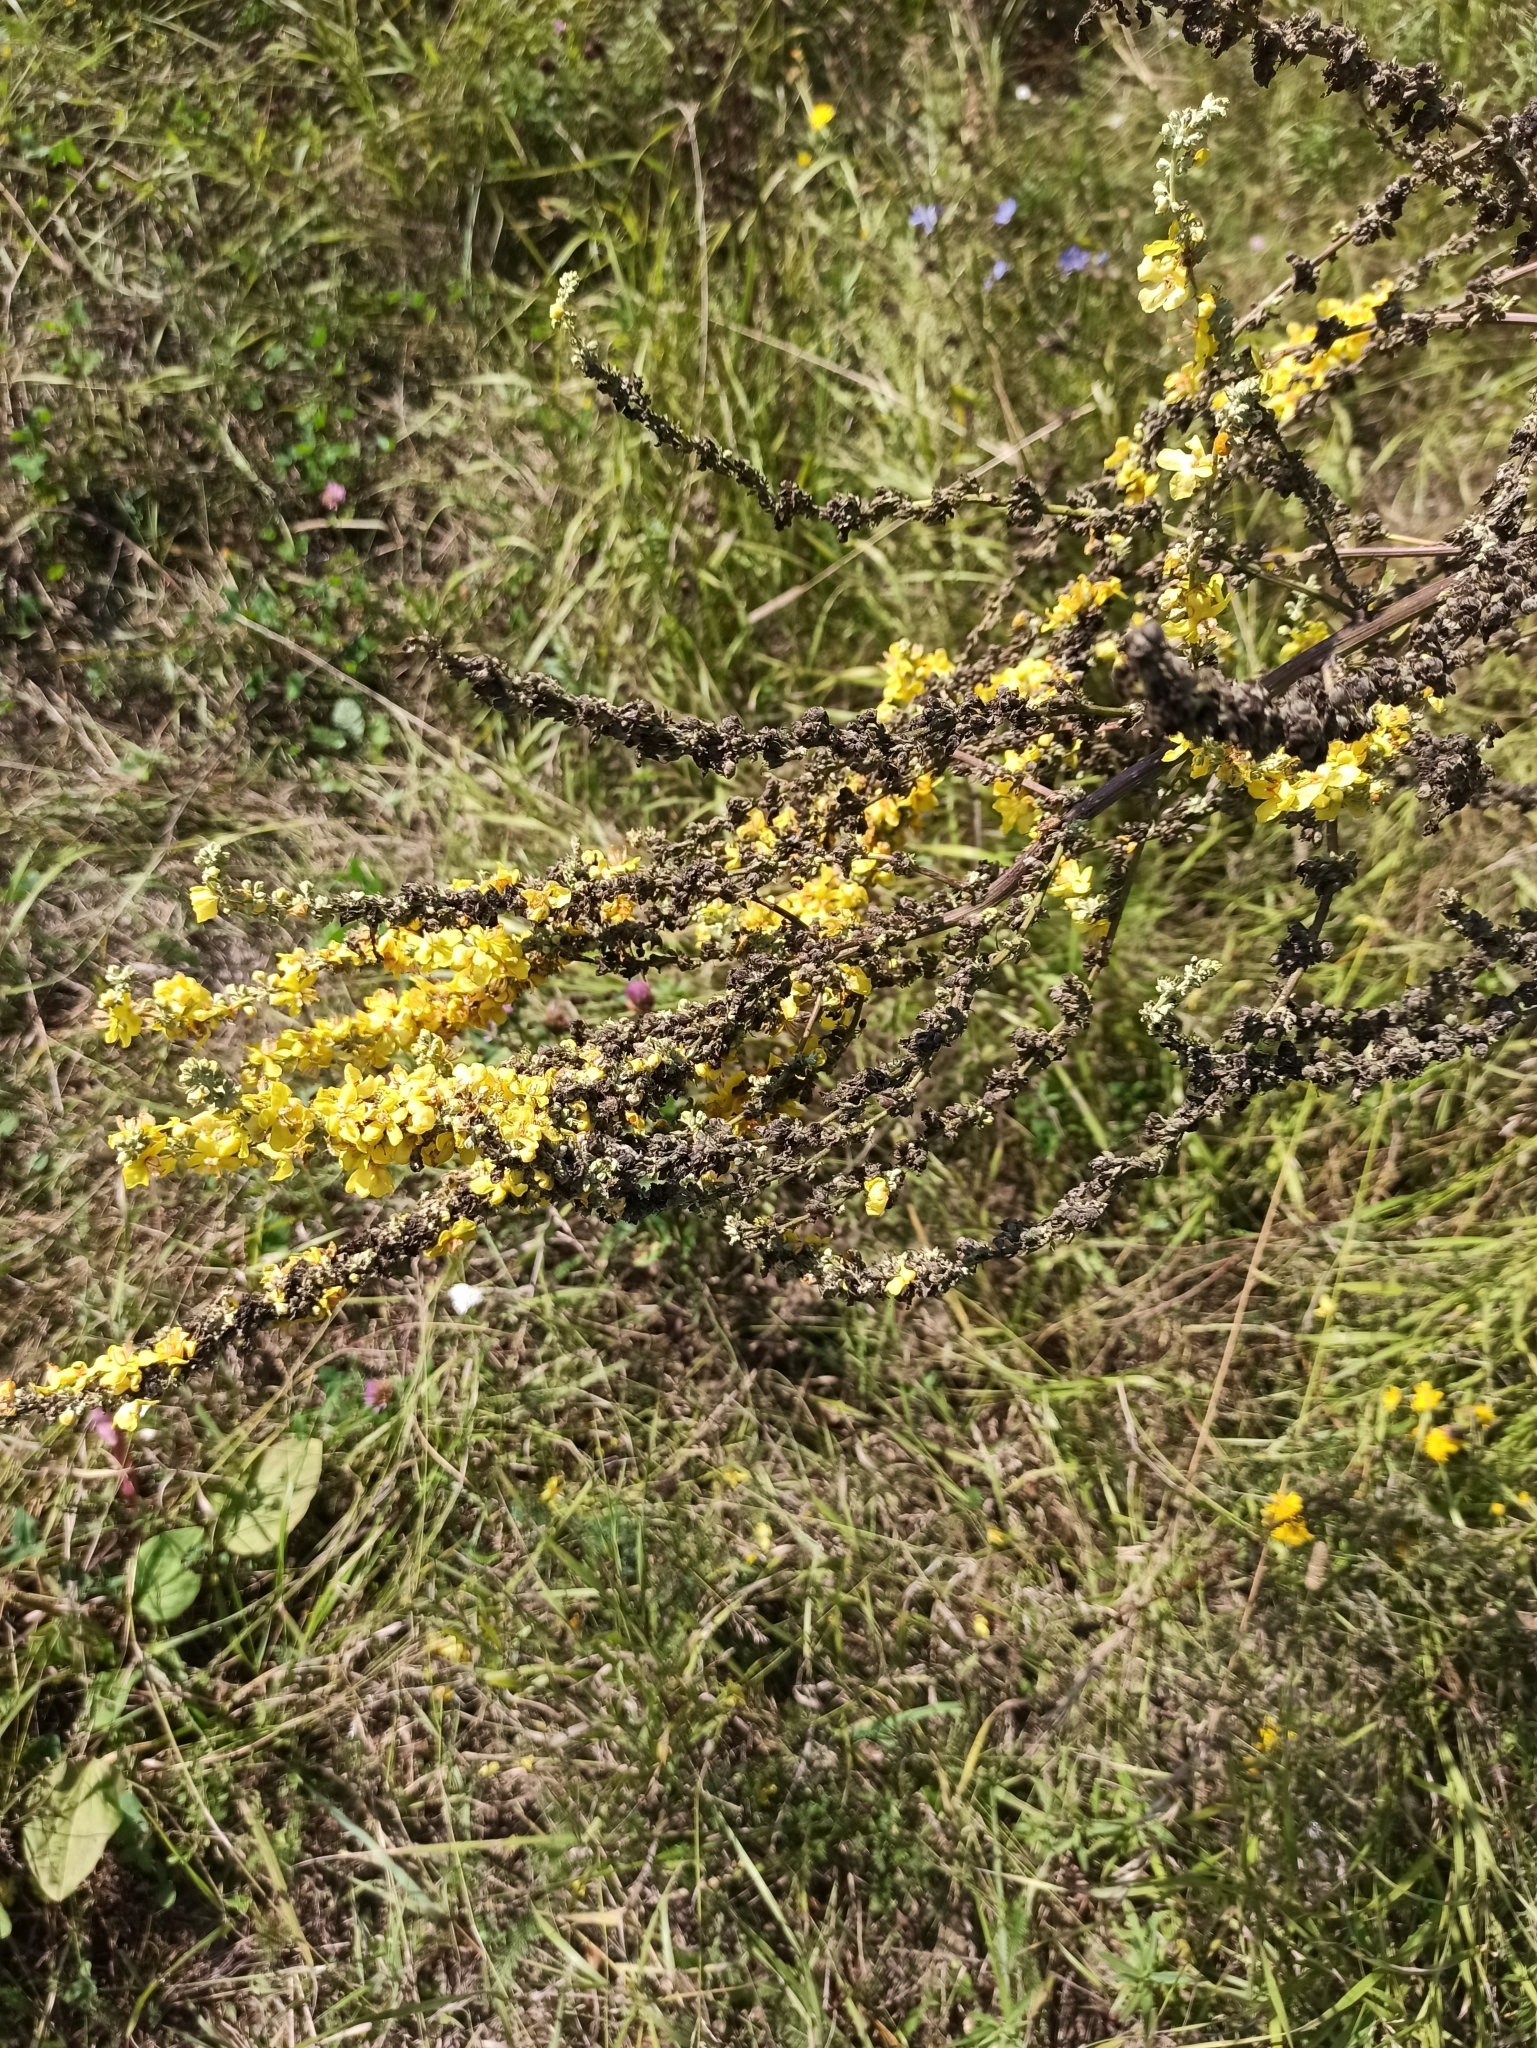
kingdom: Plantae
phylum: Tracheophyta
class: Magnoliopsida
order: Lamiales
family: Scrophulariaceae
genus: Verbascum
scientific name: Verbascum lychnitis
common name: White mullein
